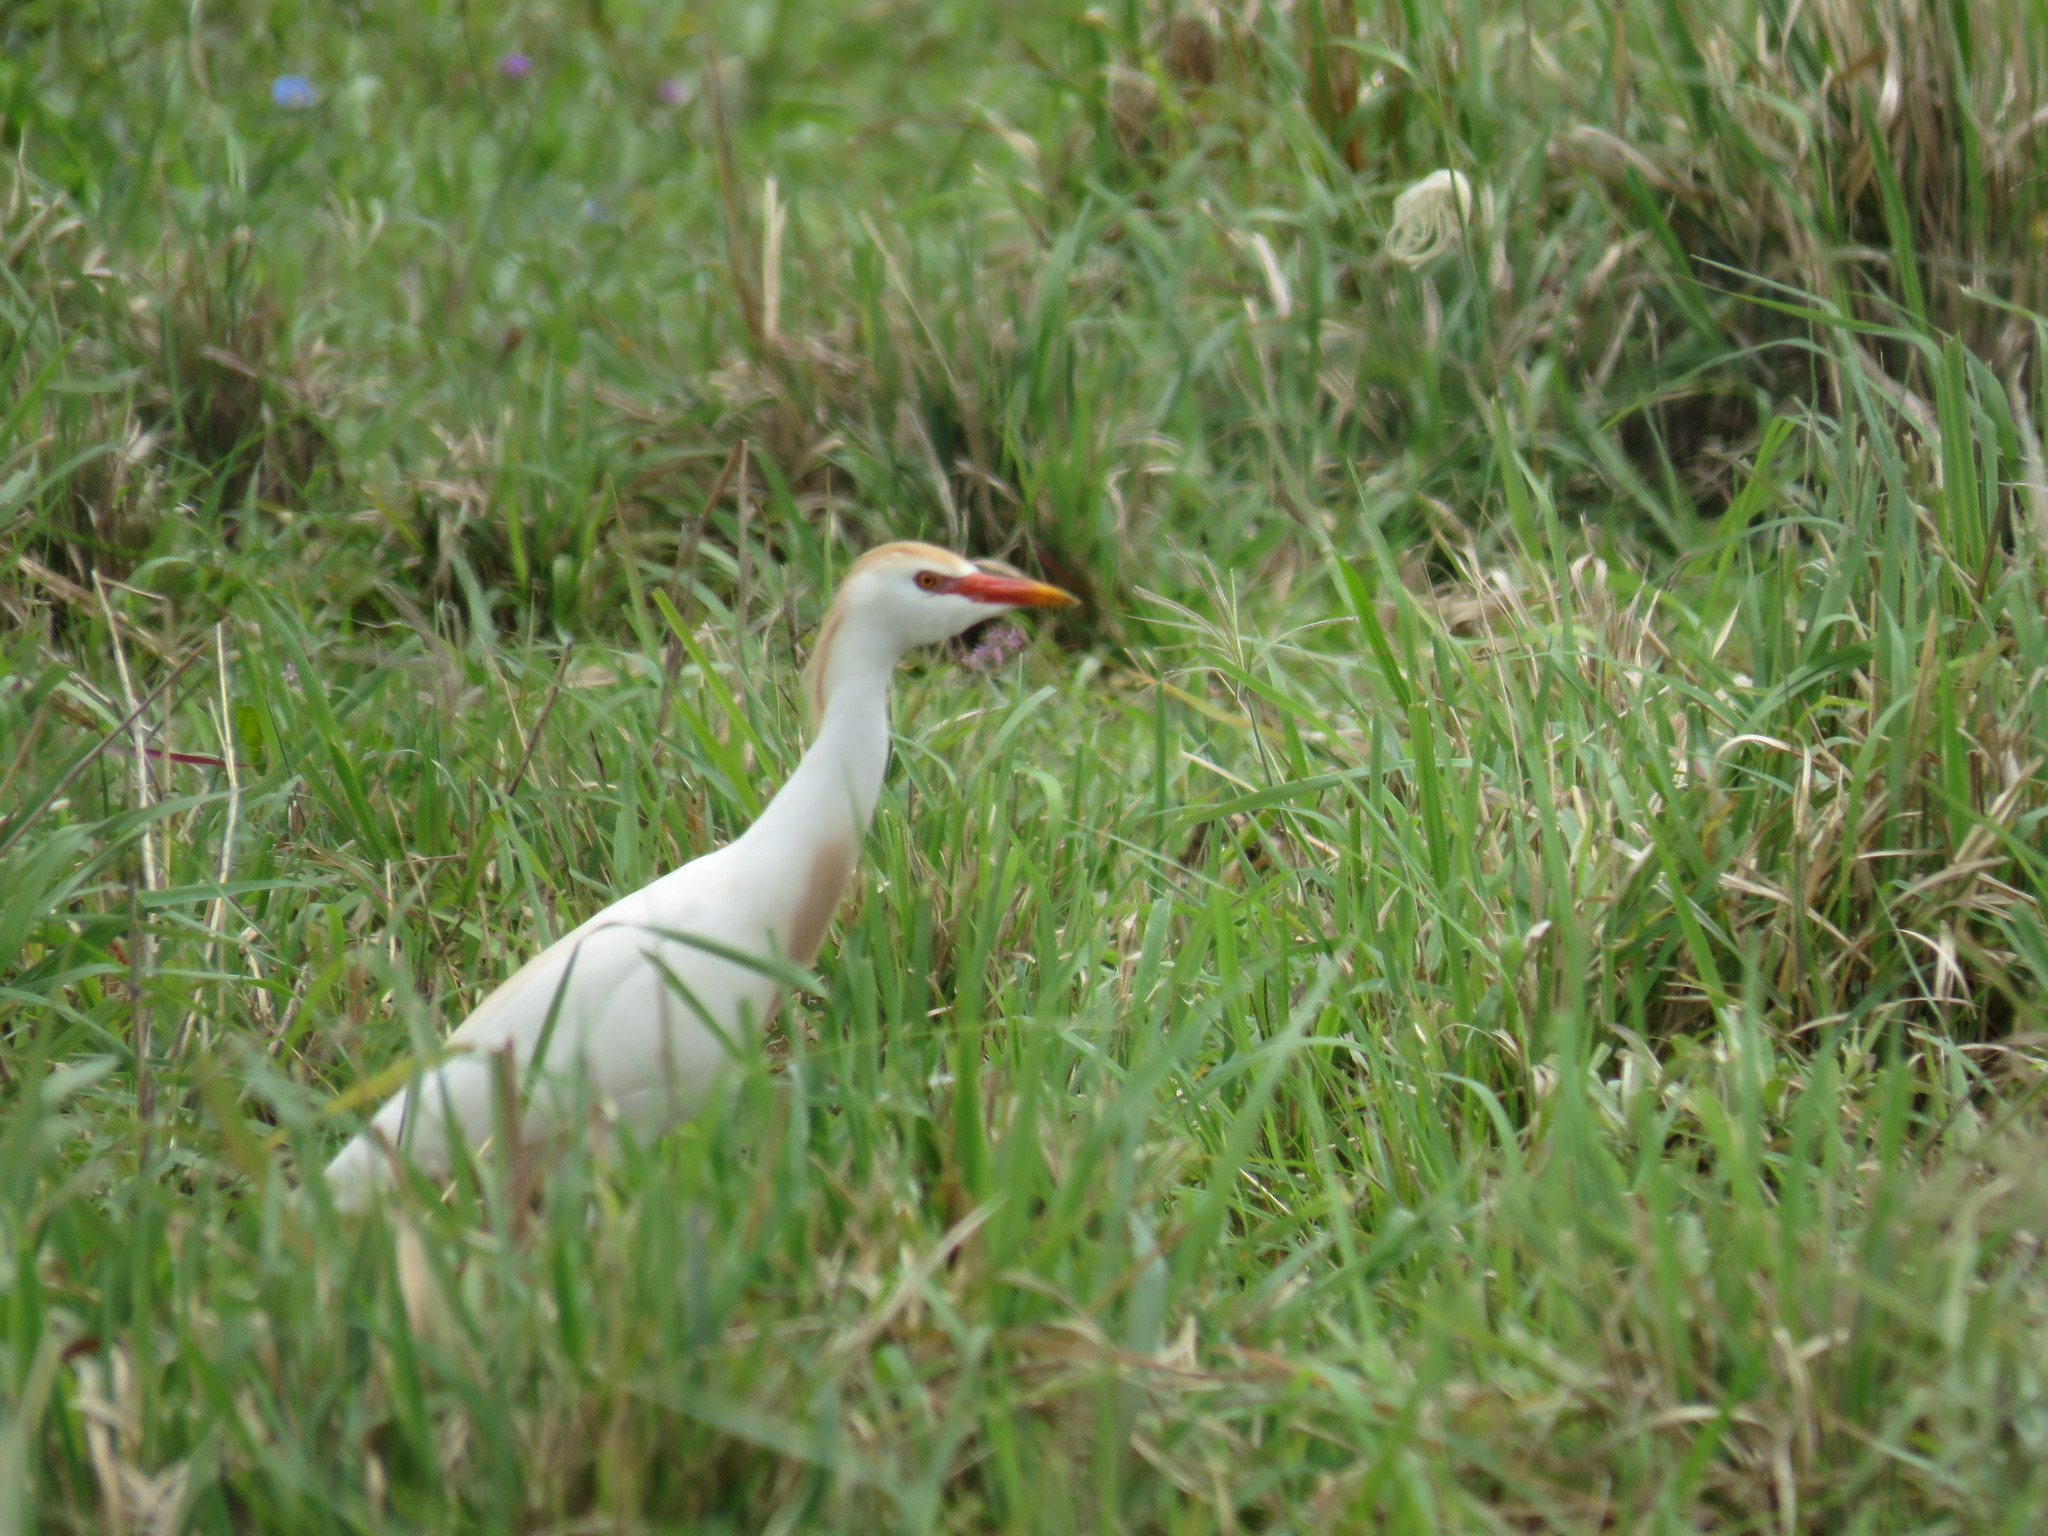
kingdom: Animalia
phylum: Chordata
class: Aves
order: Pelecaniformes
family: Ardeidae
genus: Bubulcus
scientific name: Bubulcus ibis
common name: Cattle egret
